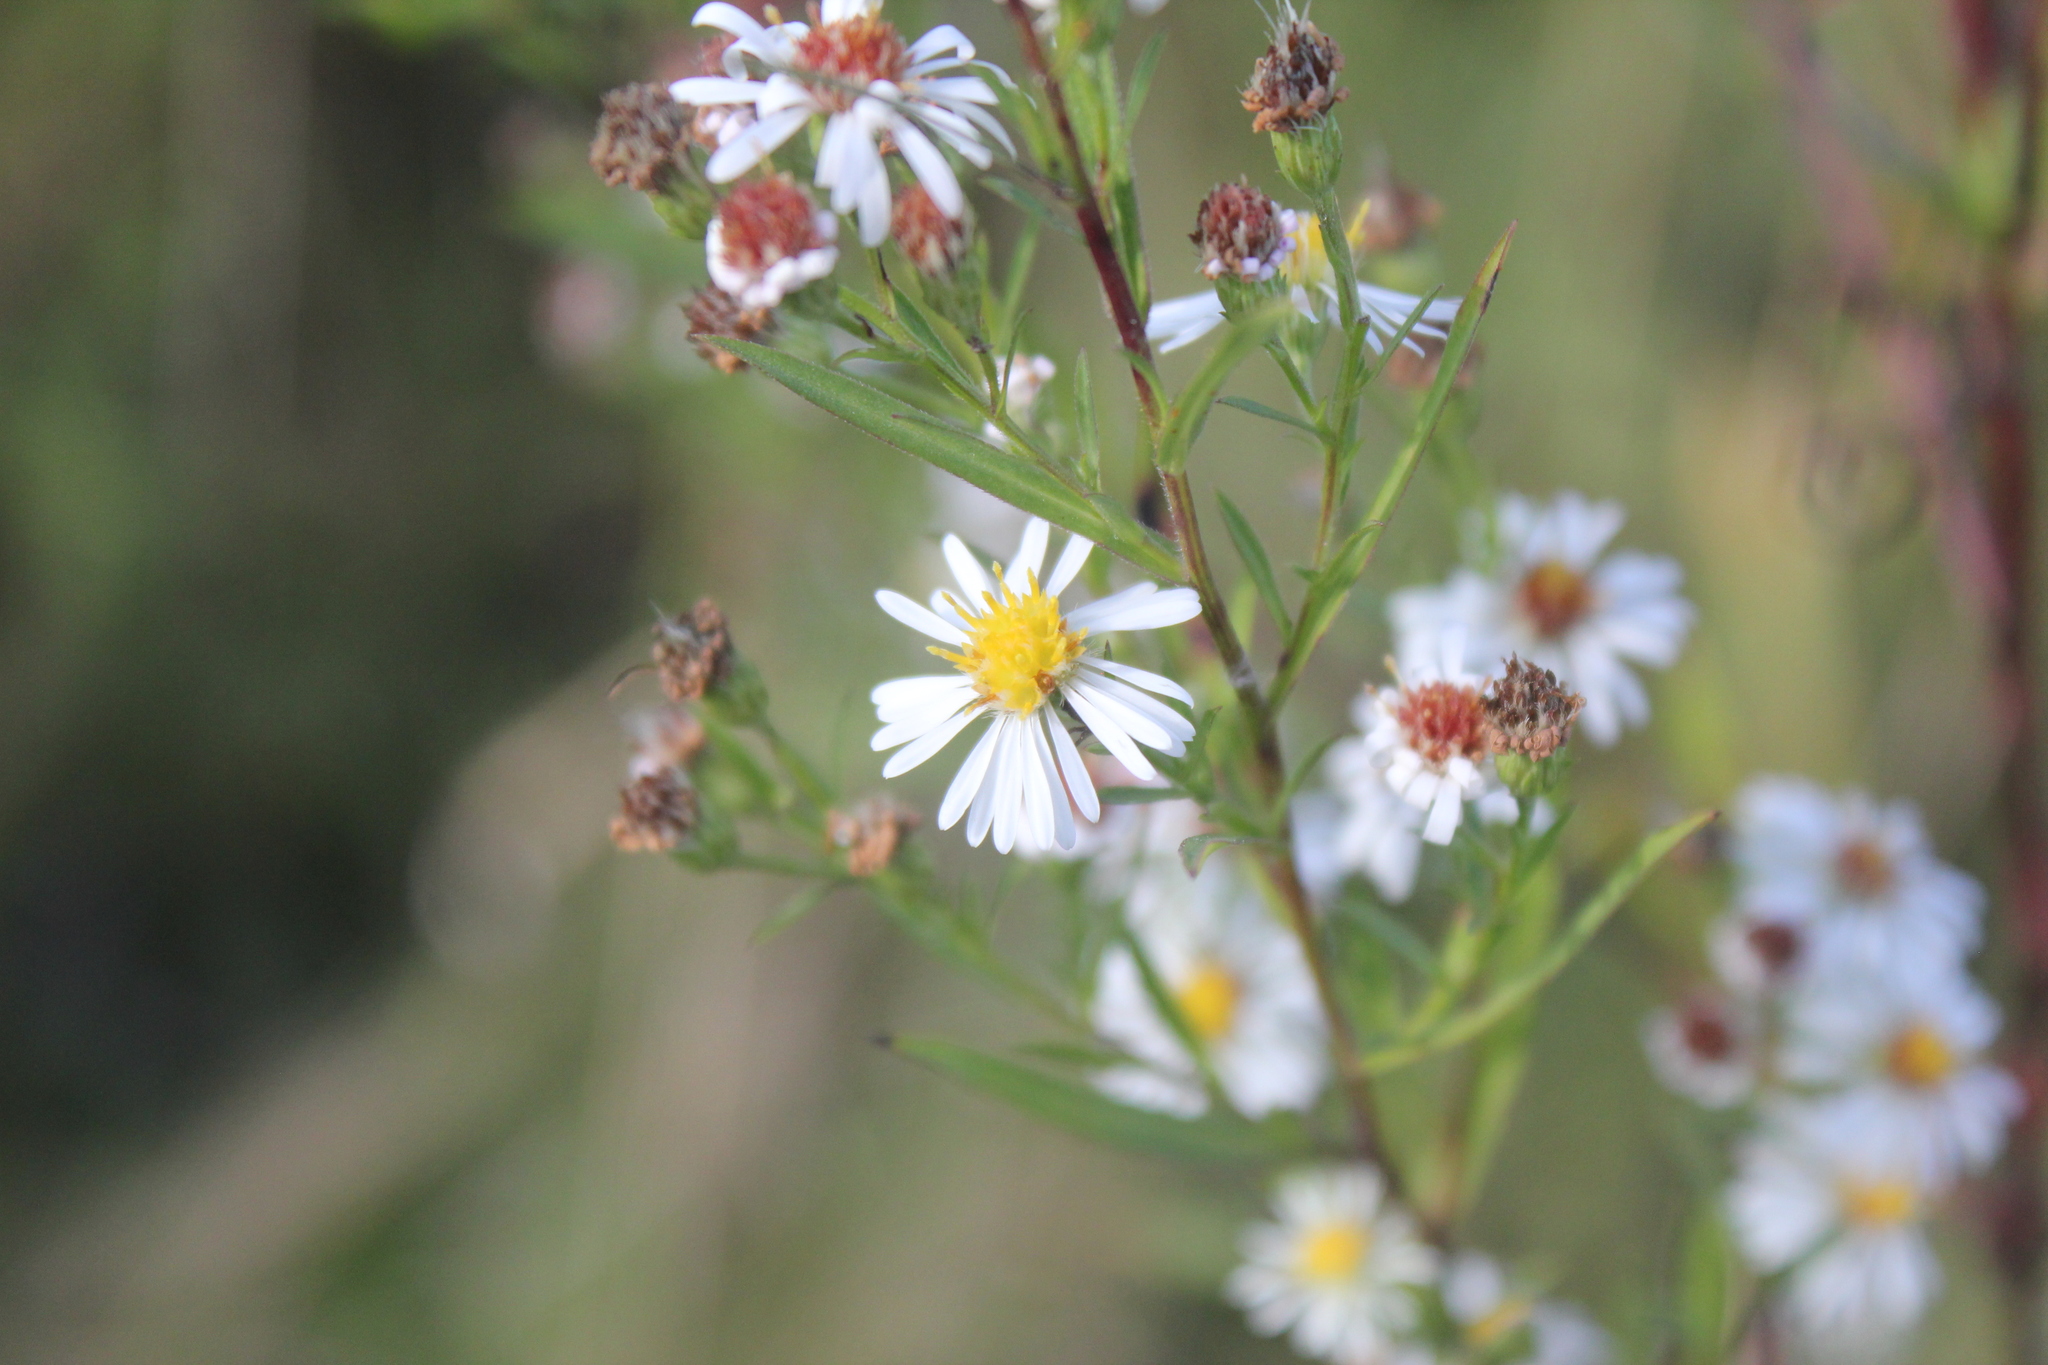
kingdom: Plantae
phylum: Tracheophyta
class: Magnoliopsida
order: Asterales
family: Asteraceae
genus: Symphyotrichum
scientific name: Symphyotrichum lanceolatum
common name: Panicled aster
